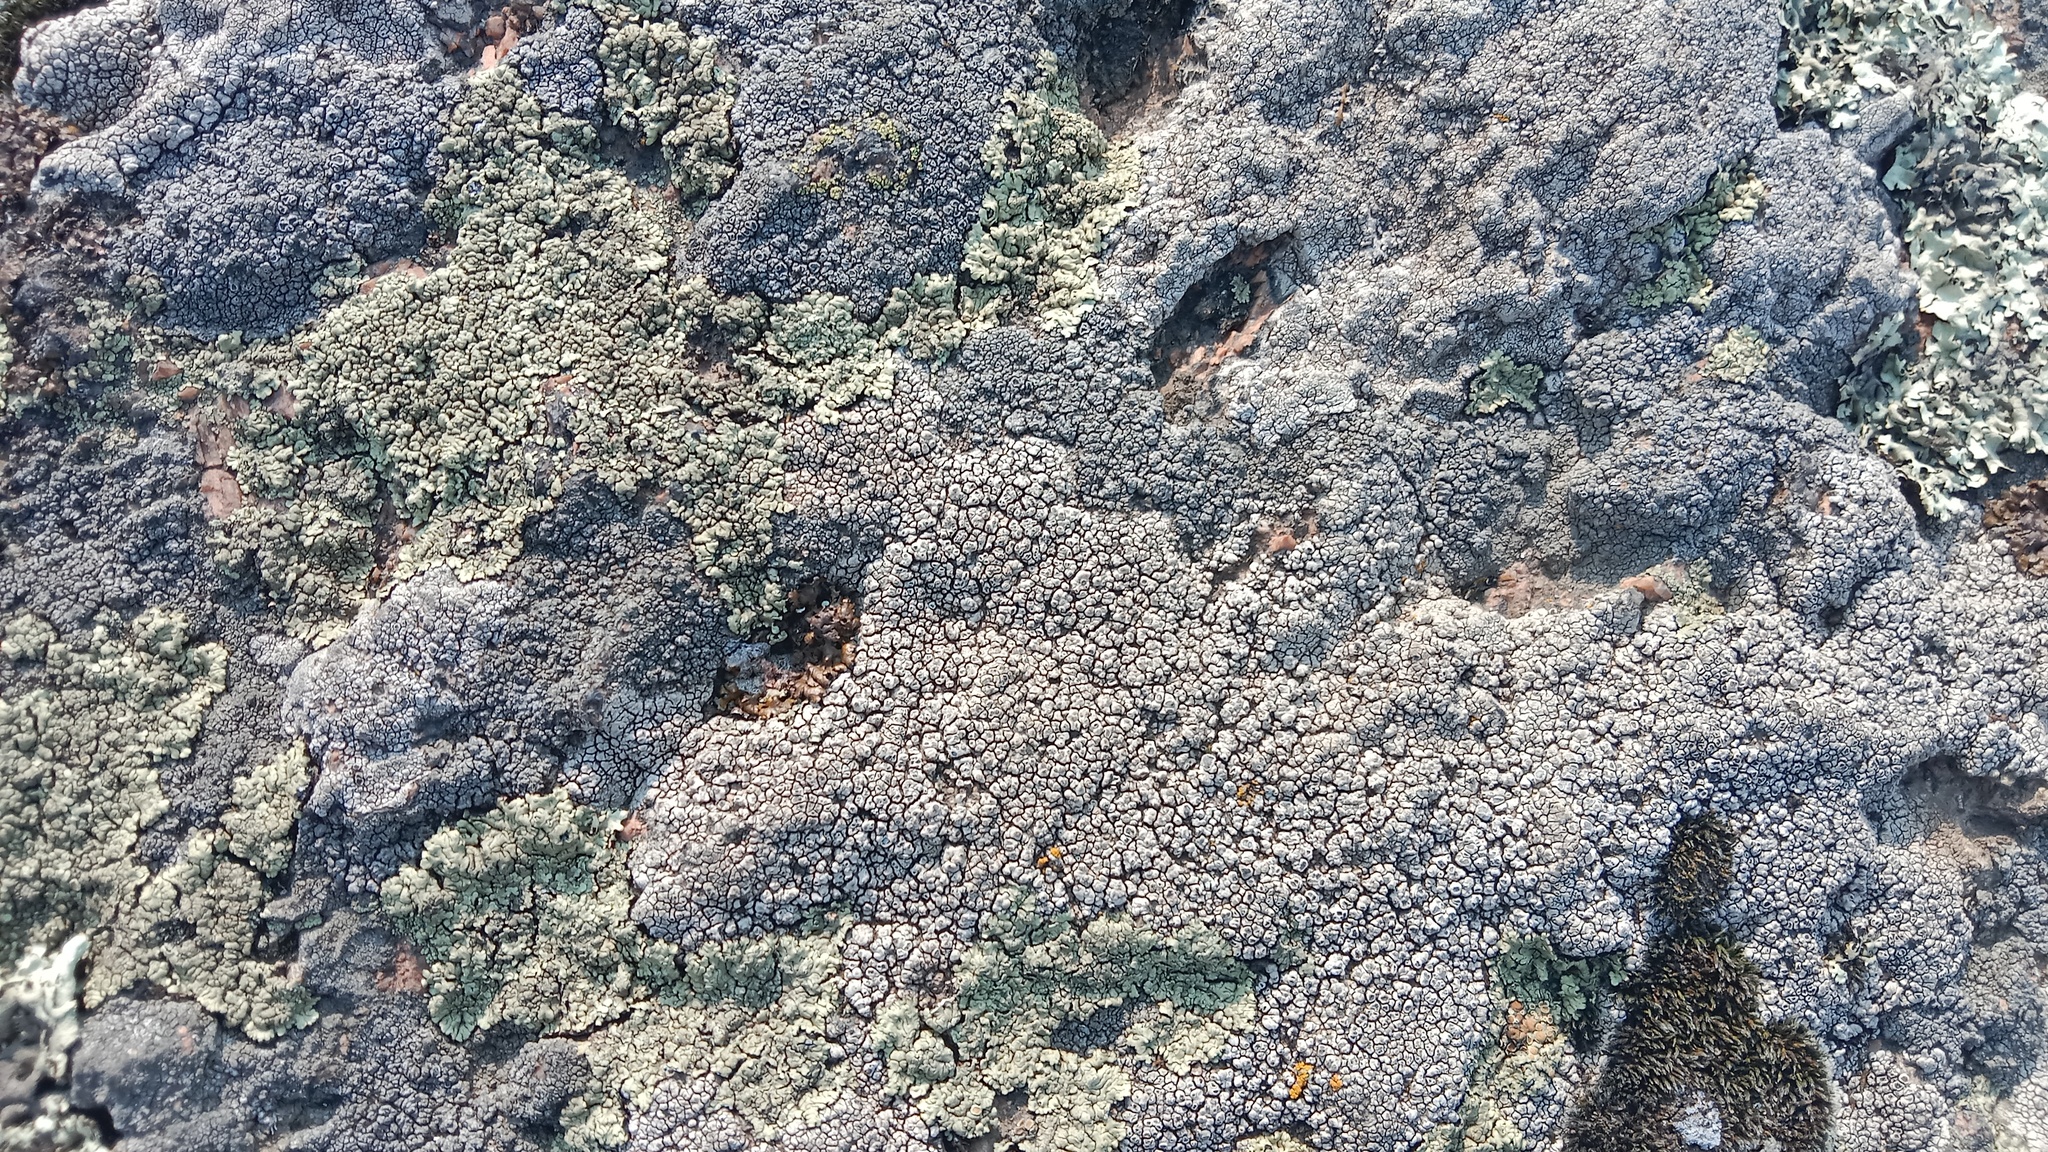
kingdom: Fungi
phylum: Ascomycota
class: Lecanoromycetes
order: Pertusariales
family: Megasporaceae
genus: Aspiciliella
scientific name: Aspiciliella intermutans
